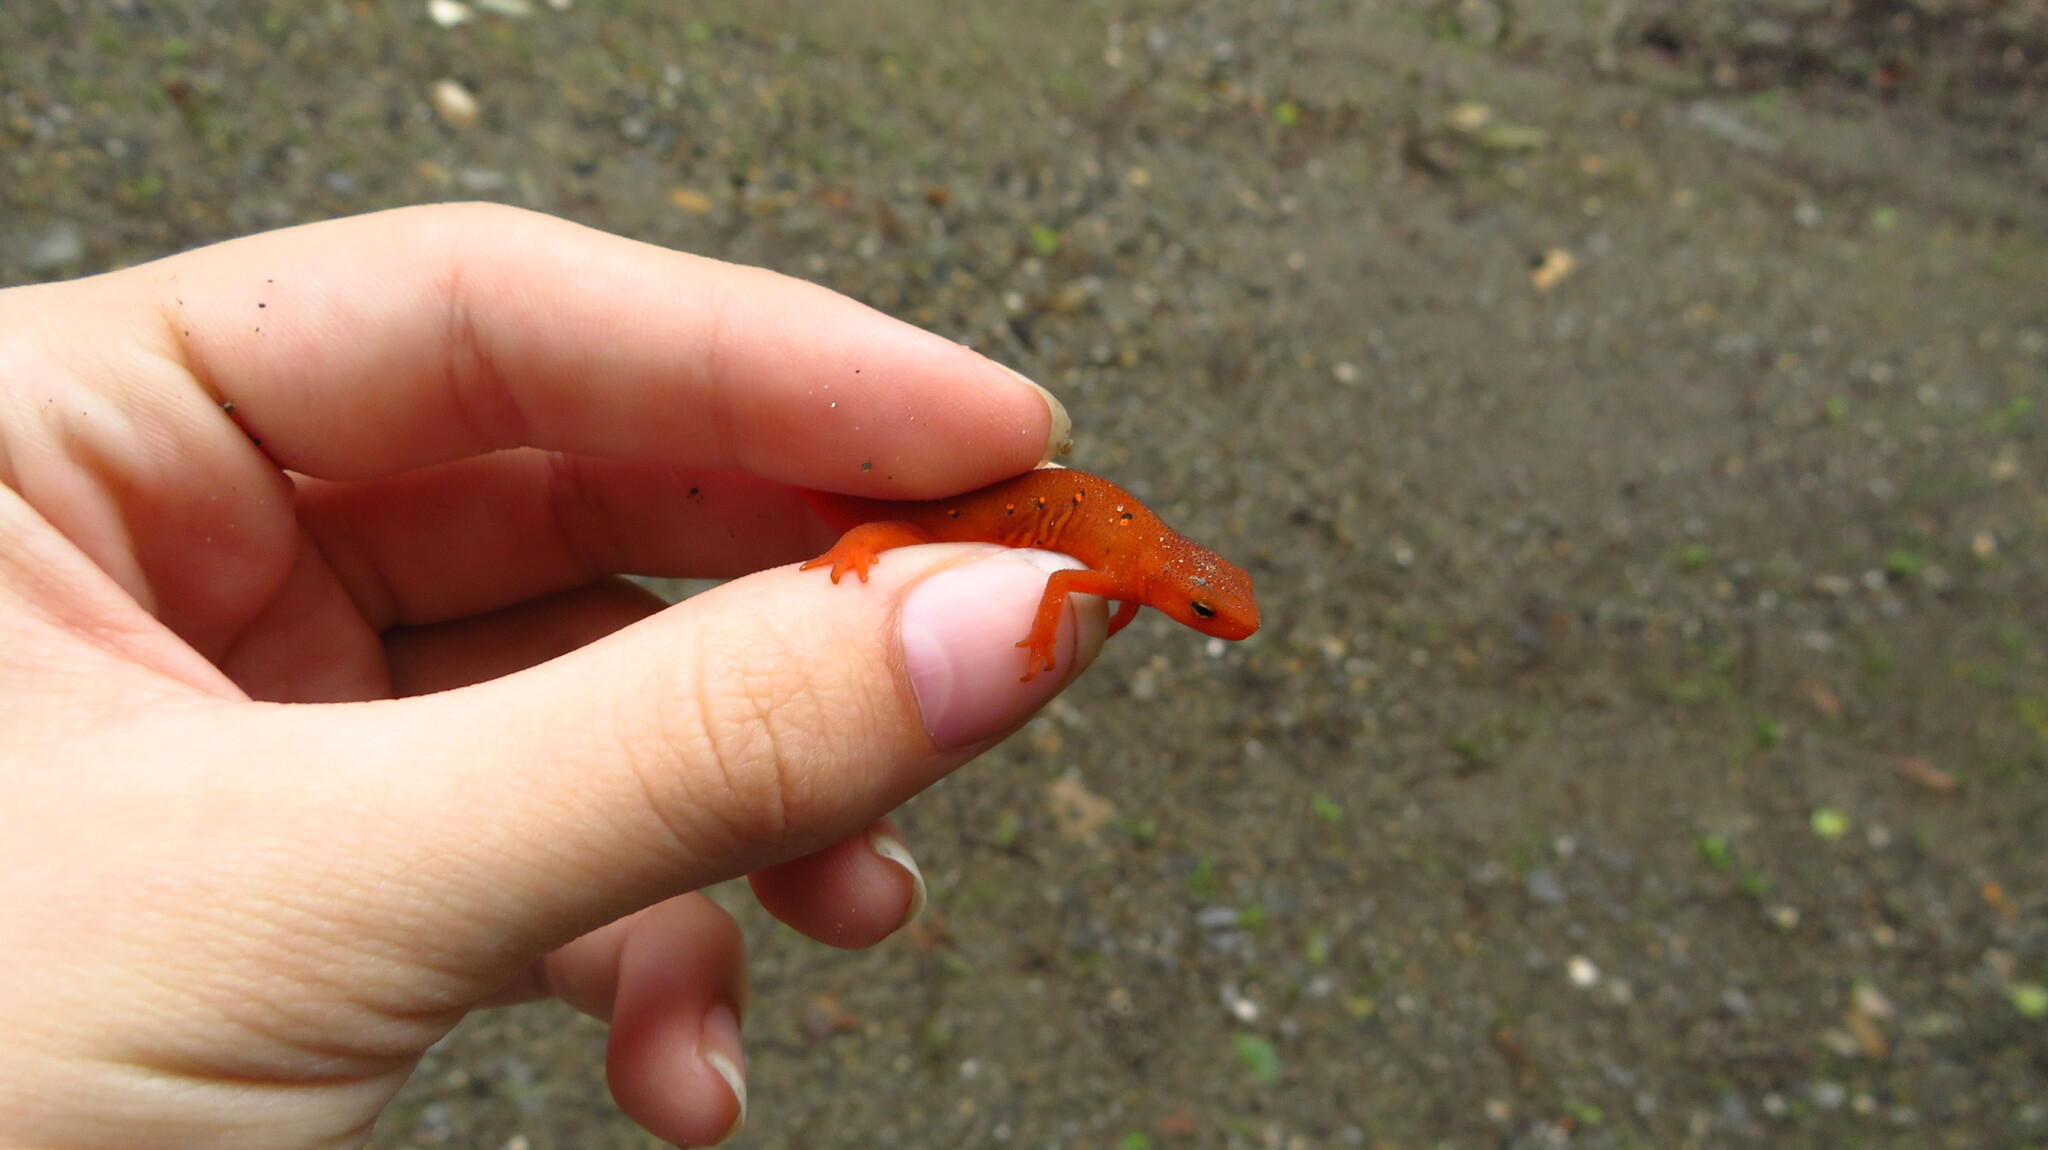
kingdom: Animalia
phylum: Chordata
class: Amphibia
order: Caudata
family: Salamandridae
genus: Notophthalmus
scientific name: Notophthalmus viridescens
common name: Eastern newt
